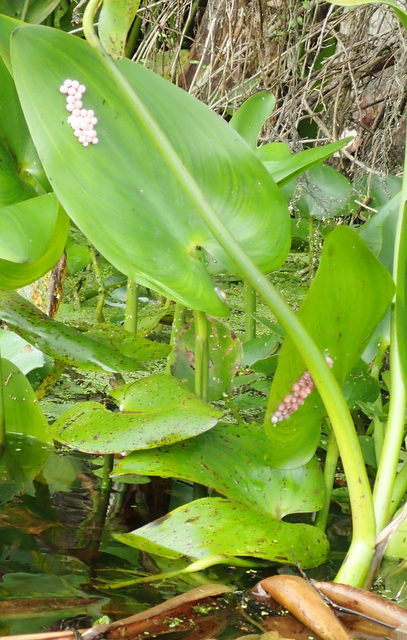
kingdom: Animalia
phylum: Mollusca
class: Gastropoda
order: Architaenioglossa
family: Ampullariidae
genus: Pomacea
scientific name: Pomacea paludosa
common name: Florida applesnail
